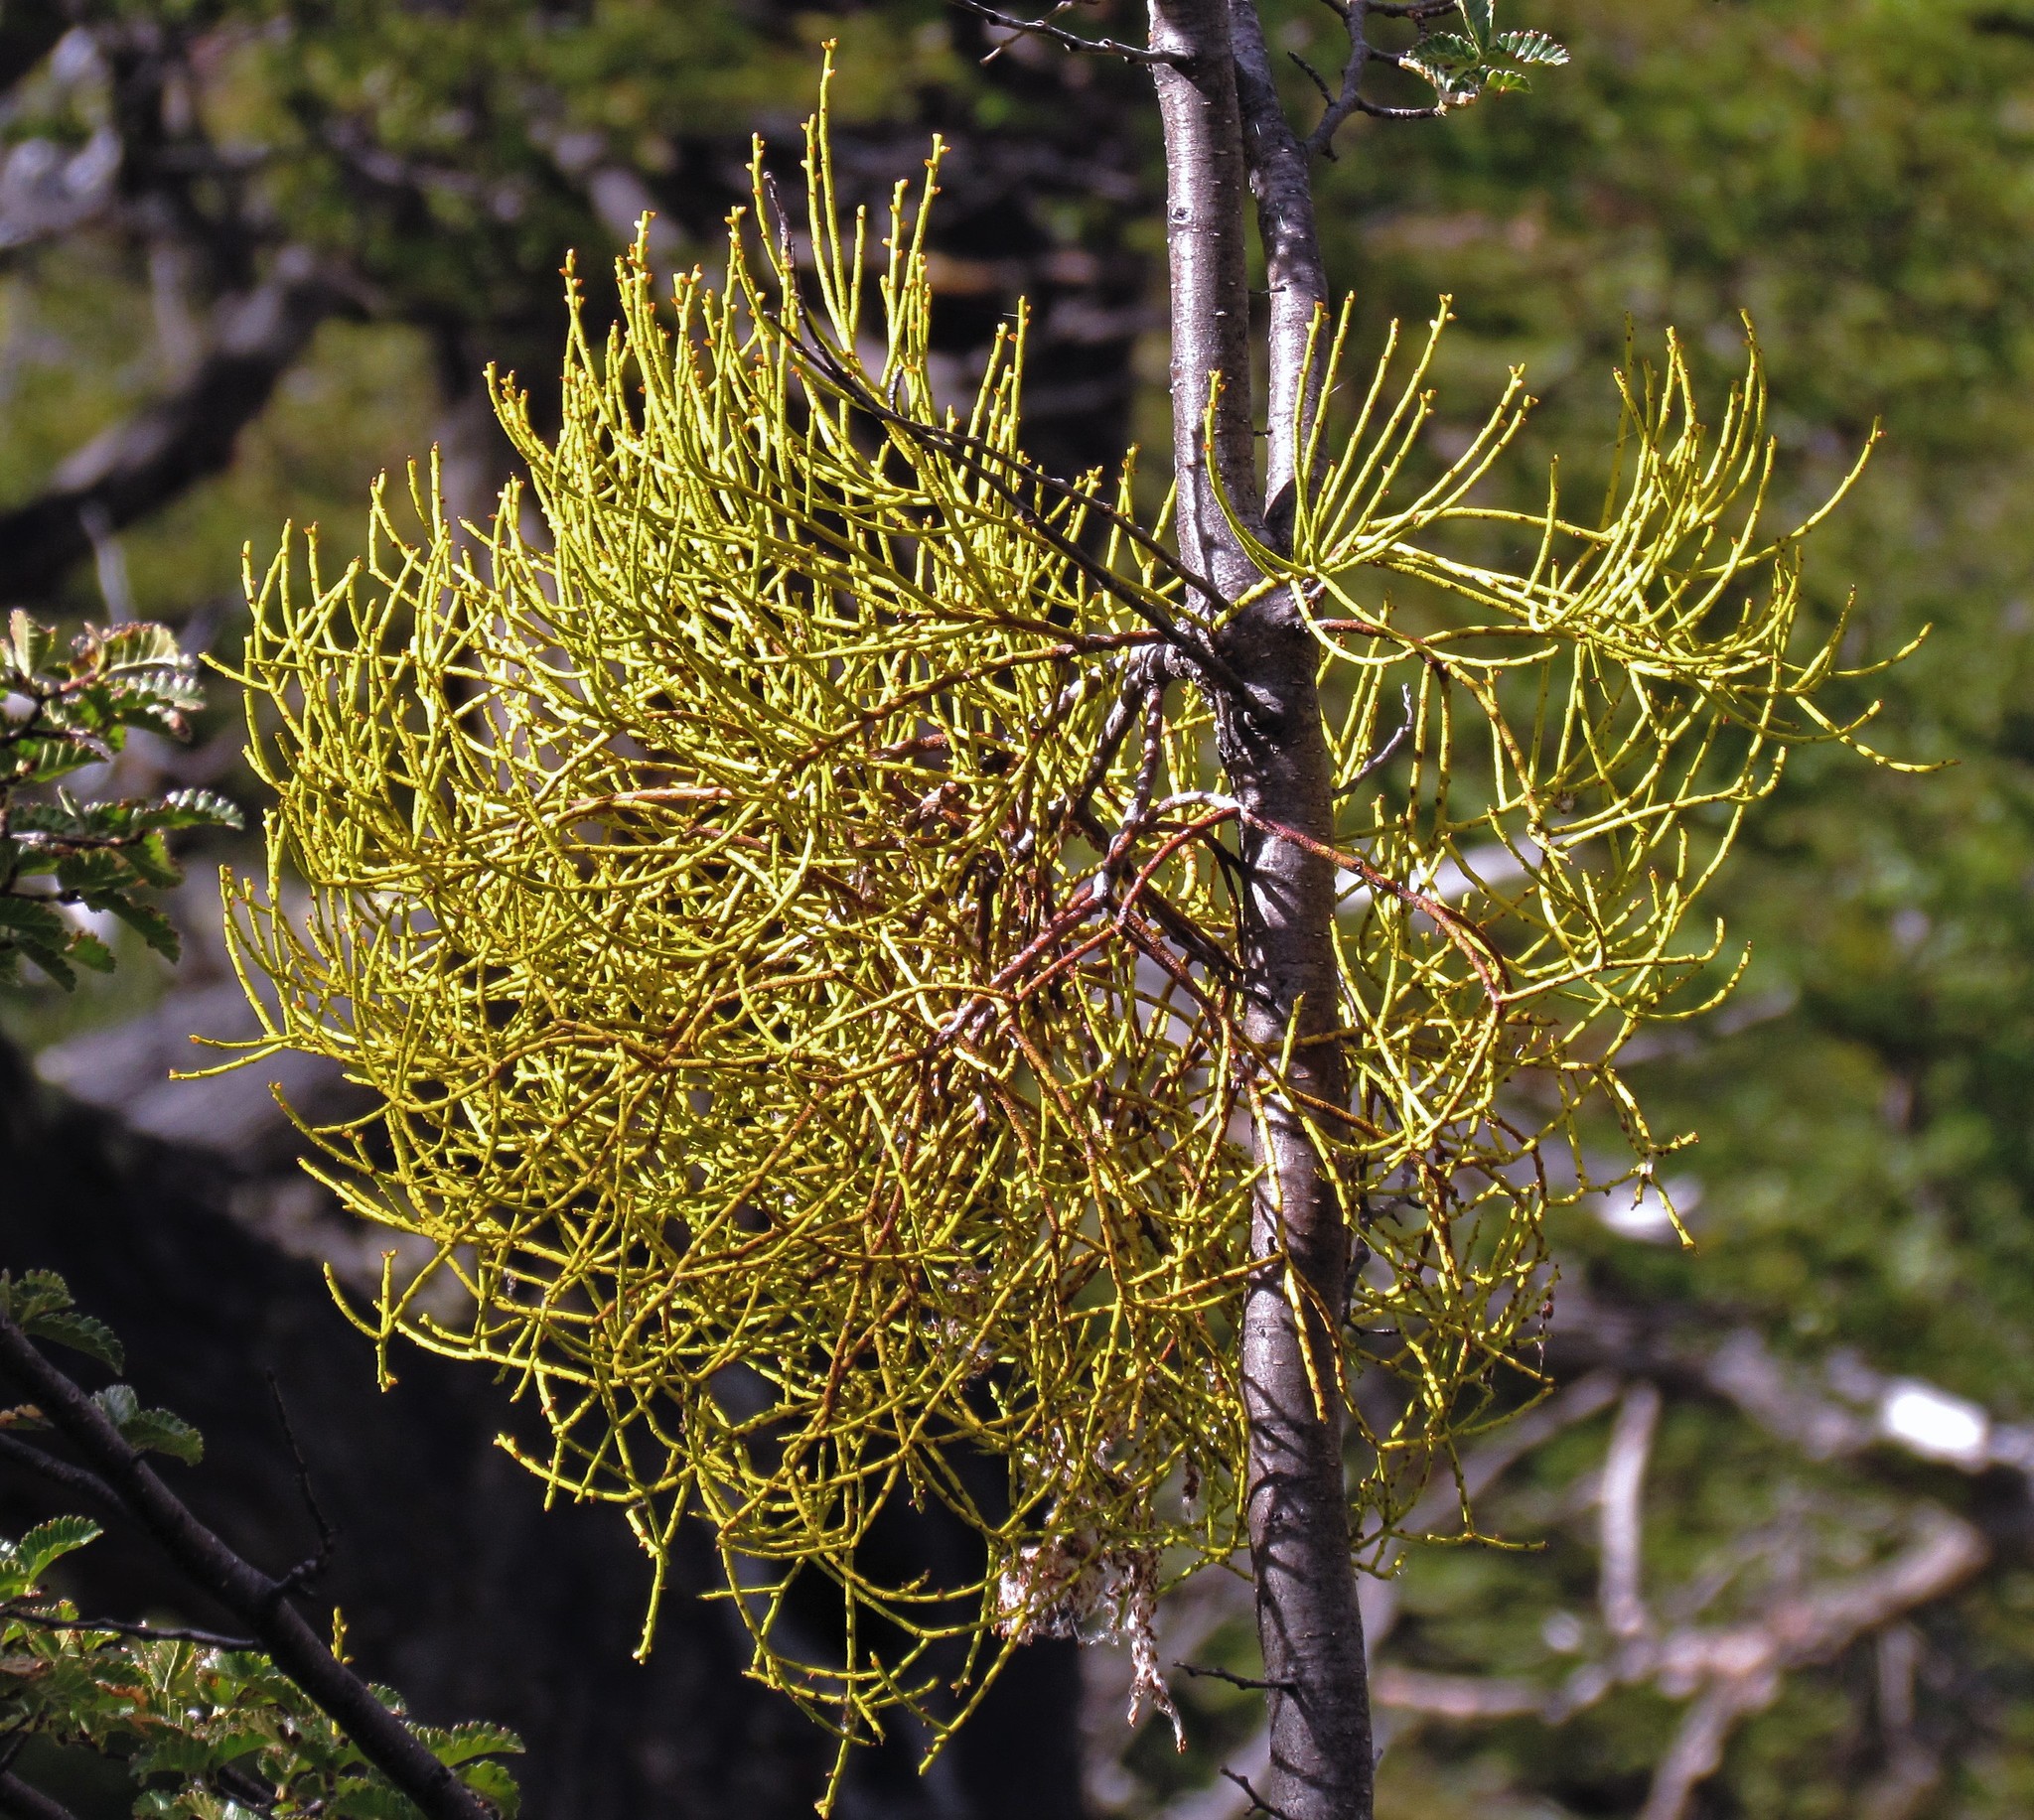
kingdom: Plantae
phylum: Tracheophyta
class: Magnoliopsida
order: Santalales
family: Misodendraceae
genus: Misodendrum
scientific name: Misodendrum punctulatum
